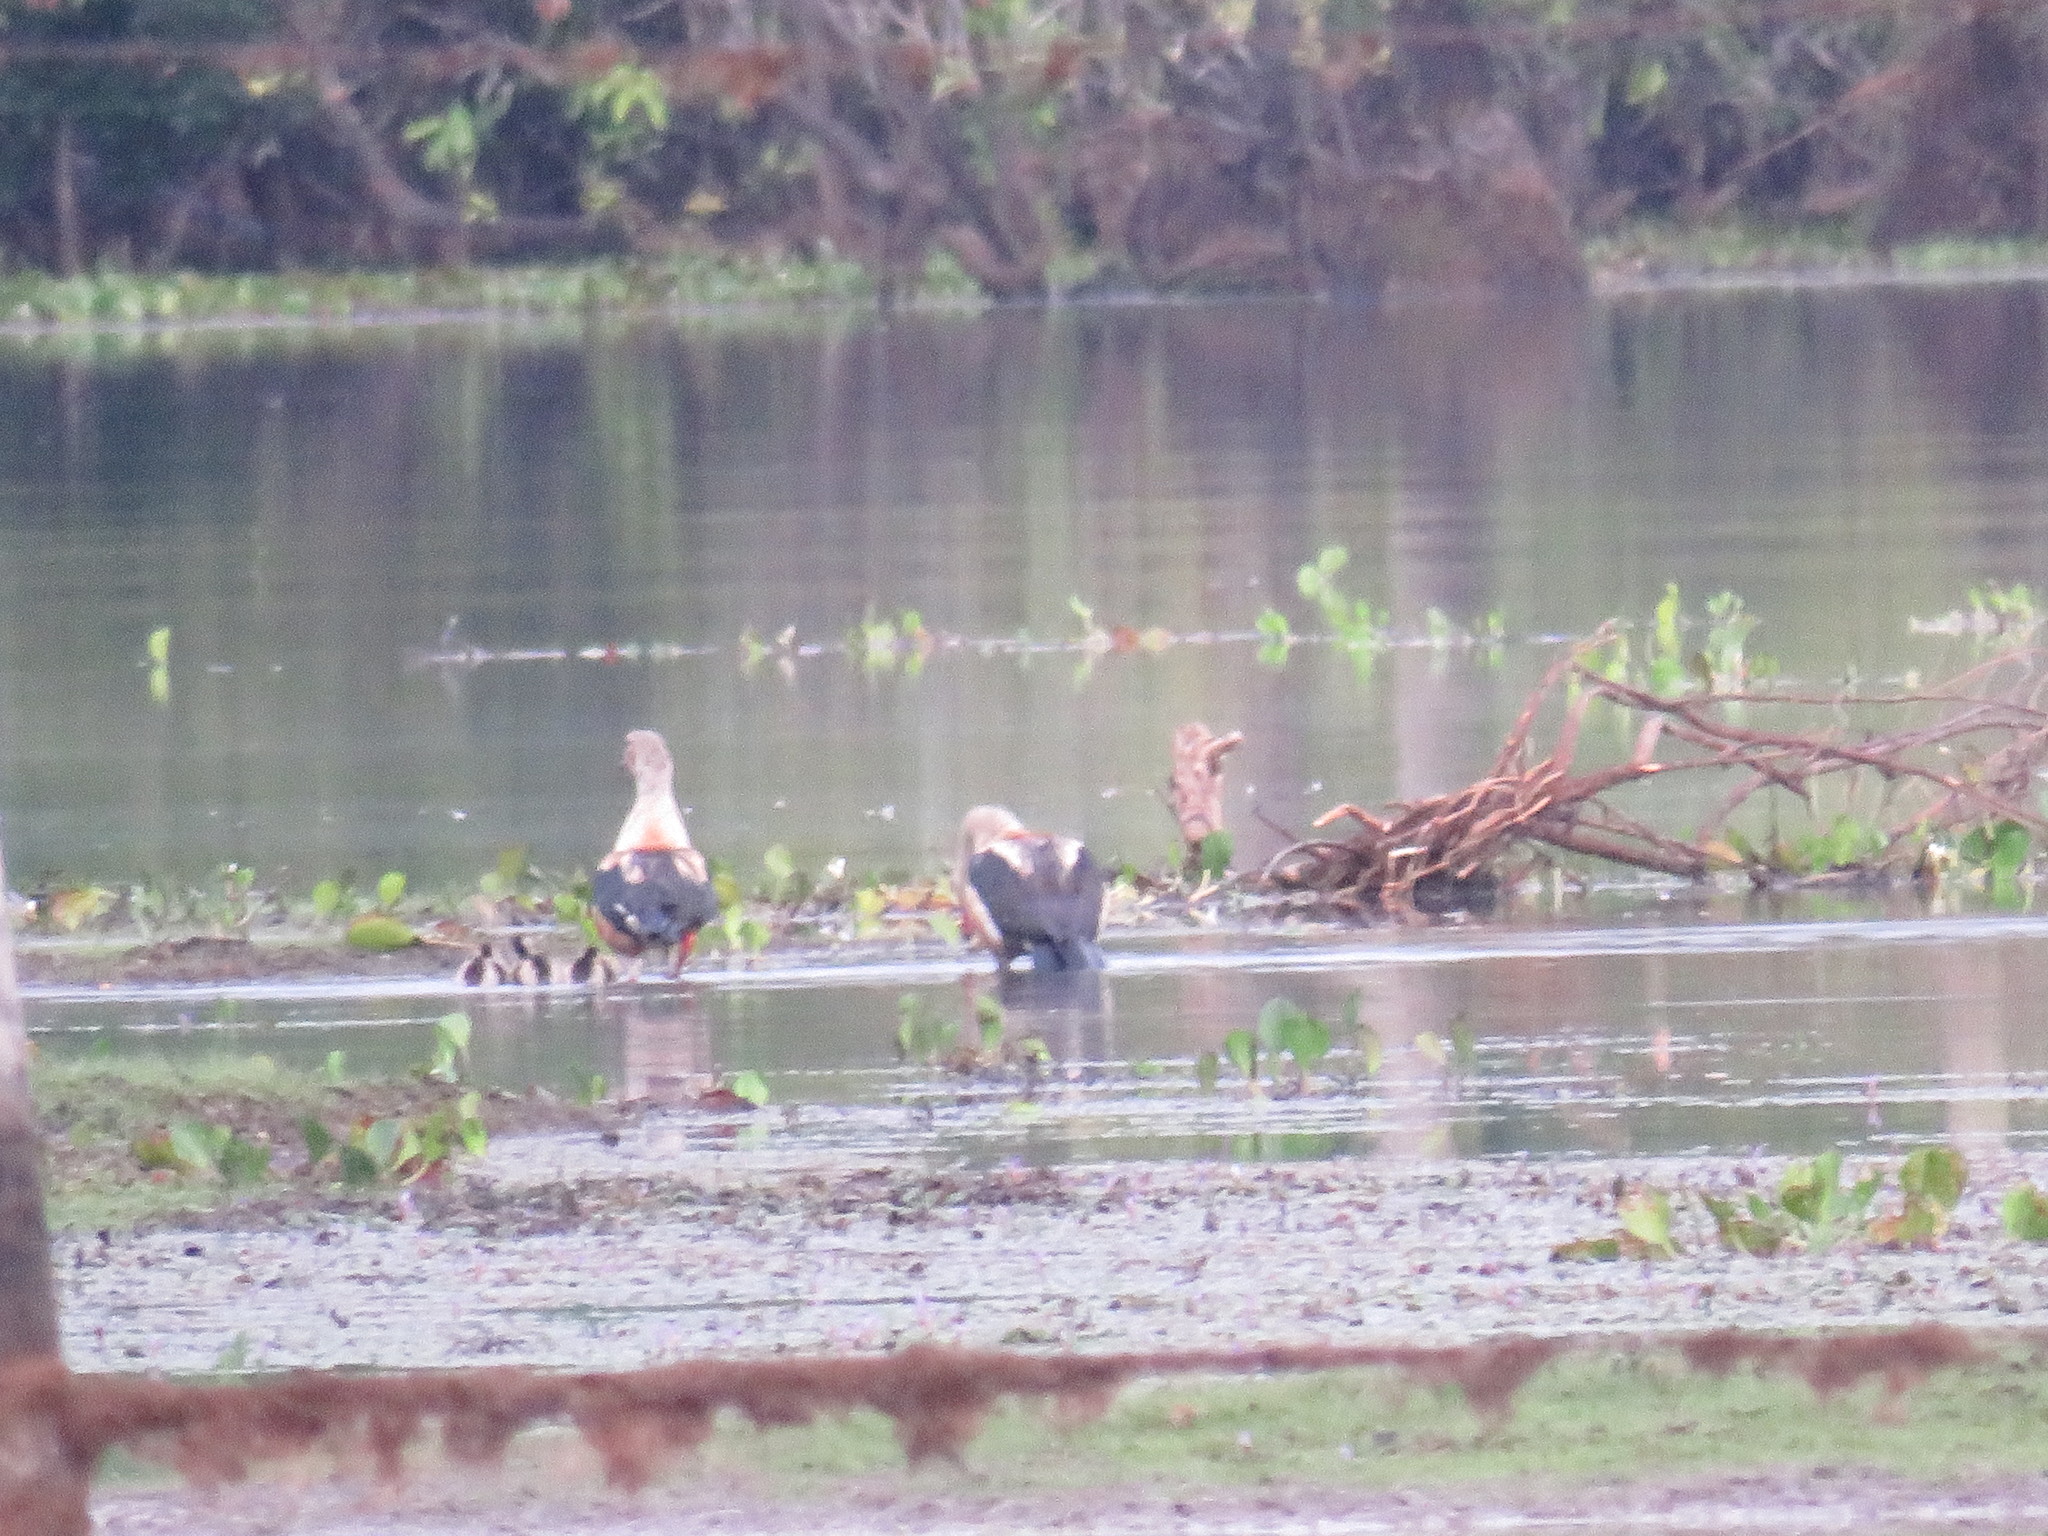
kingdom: Animalia
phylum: Chordata
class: Aves
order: Anseriformes
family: Anatidae
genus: Oressochen
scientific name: Oressochen jubatus
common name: Orinoco goose
